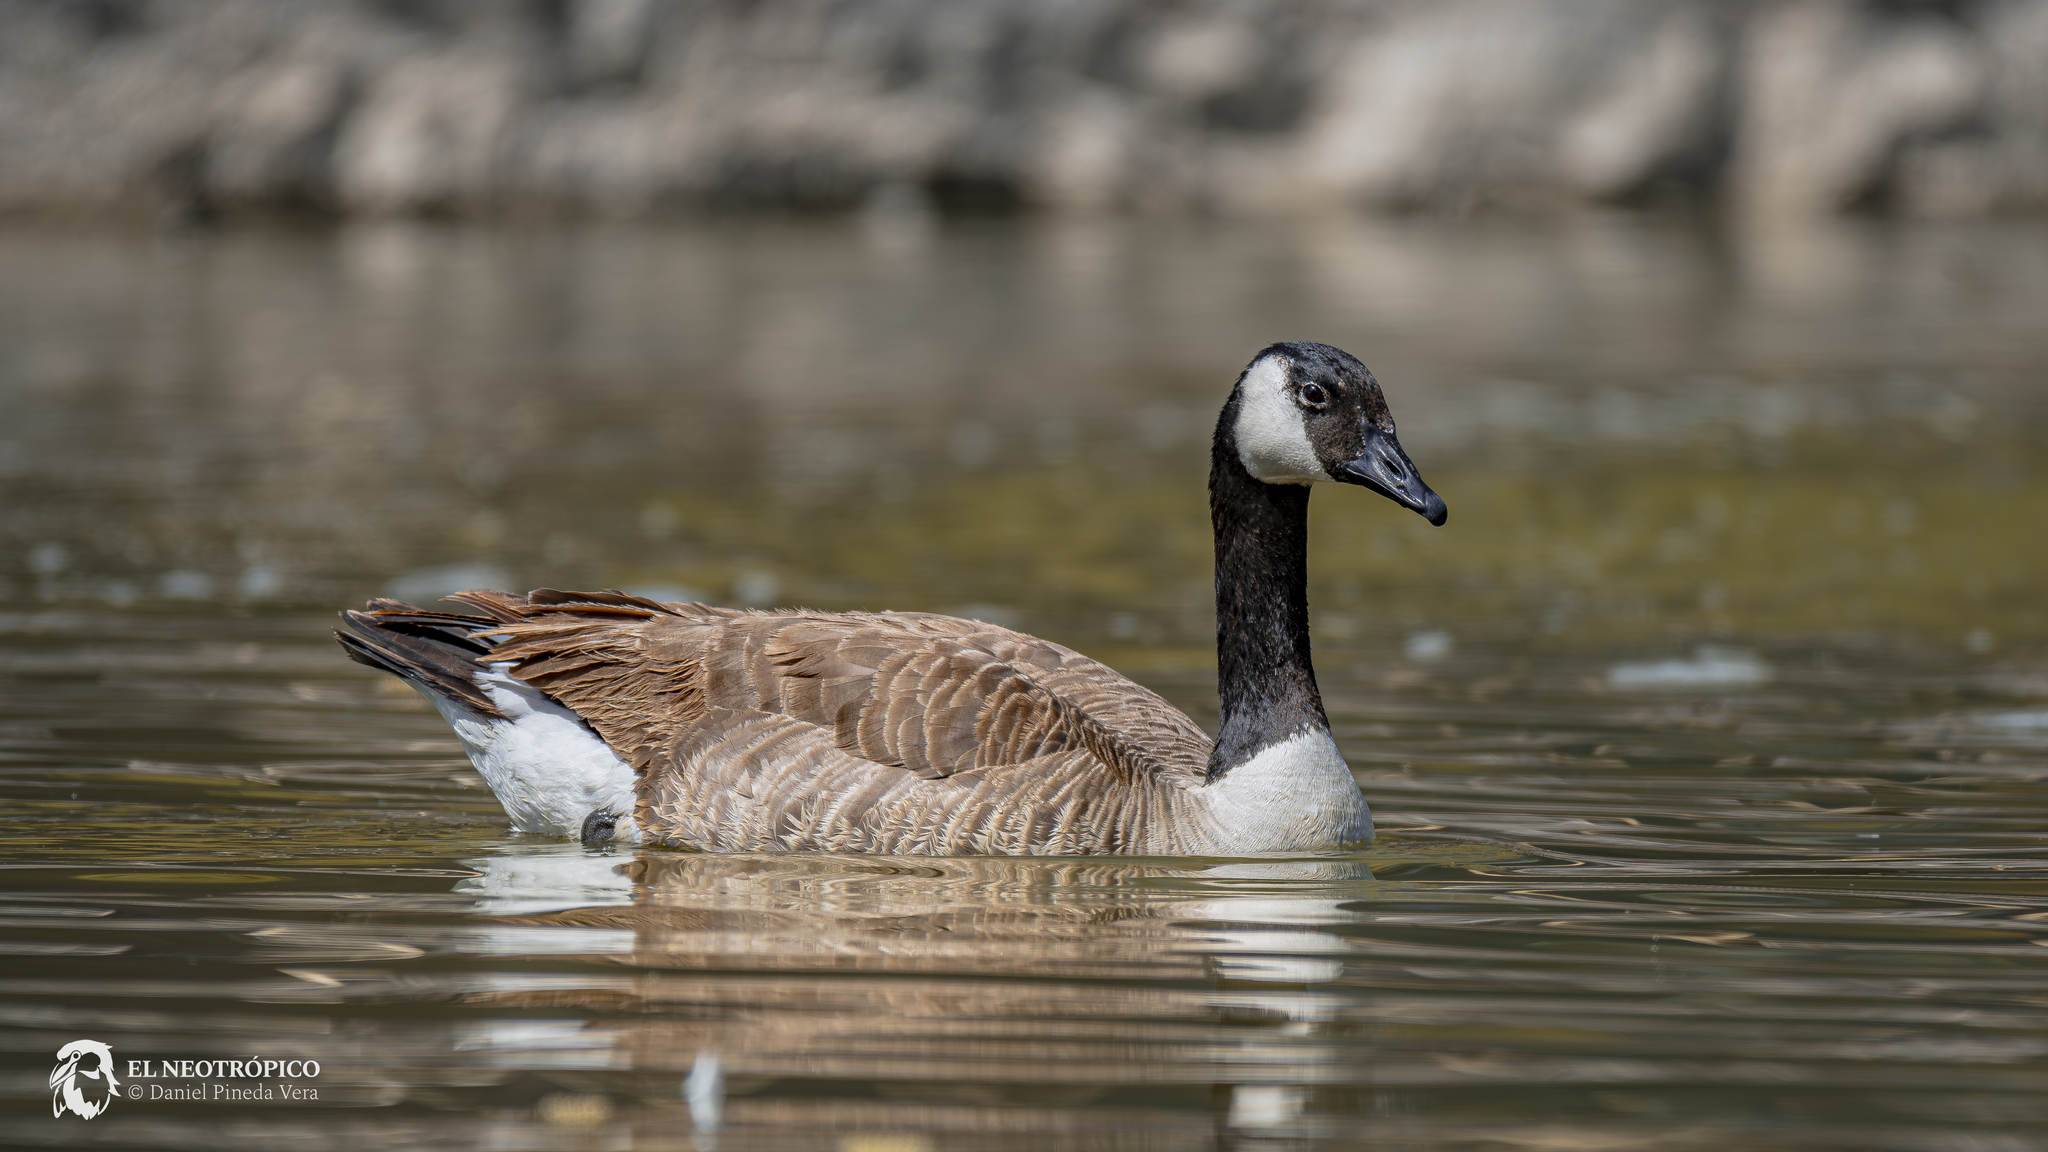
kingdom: Animalia
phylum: Chordata
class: Aves
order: Anseriformes
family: Anatidae
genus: Branta
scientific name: Branta canadensis
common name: Canada goose
